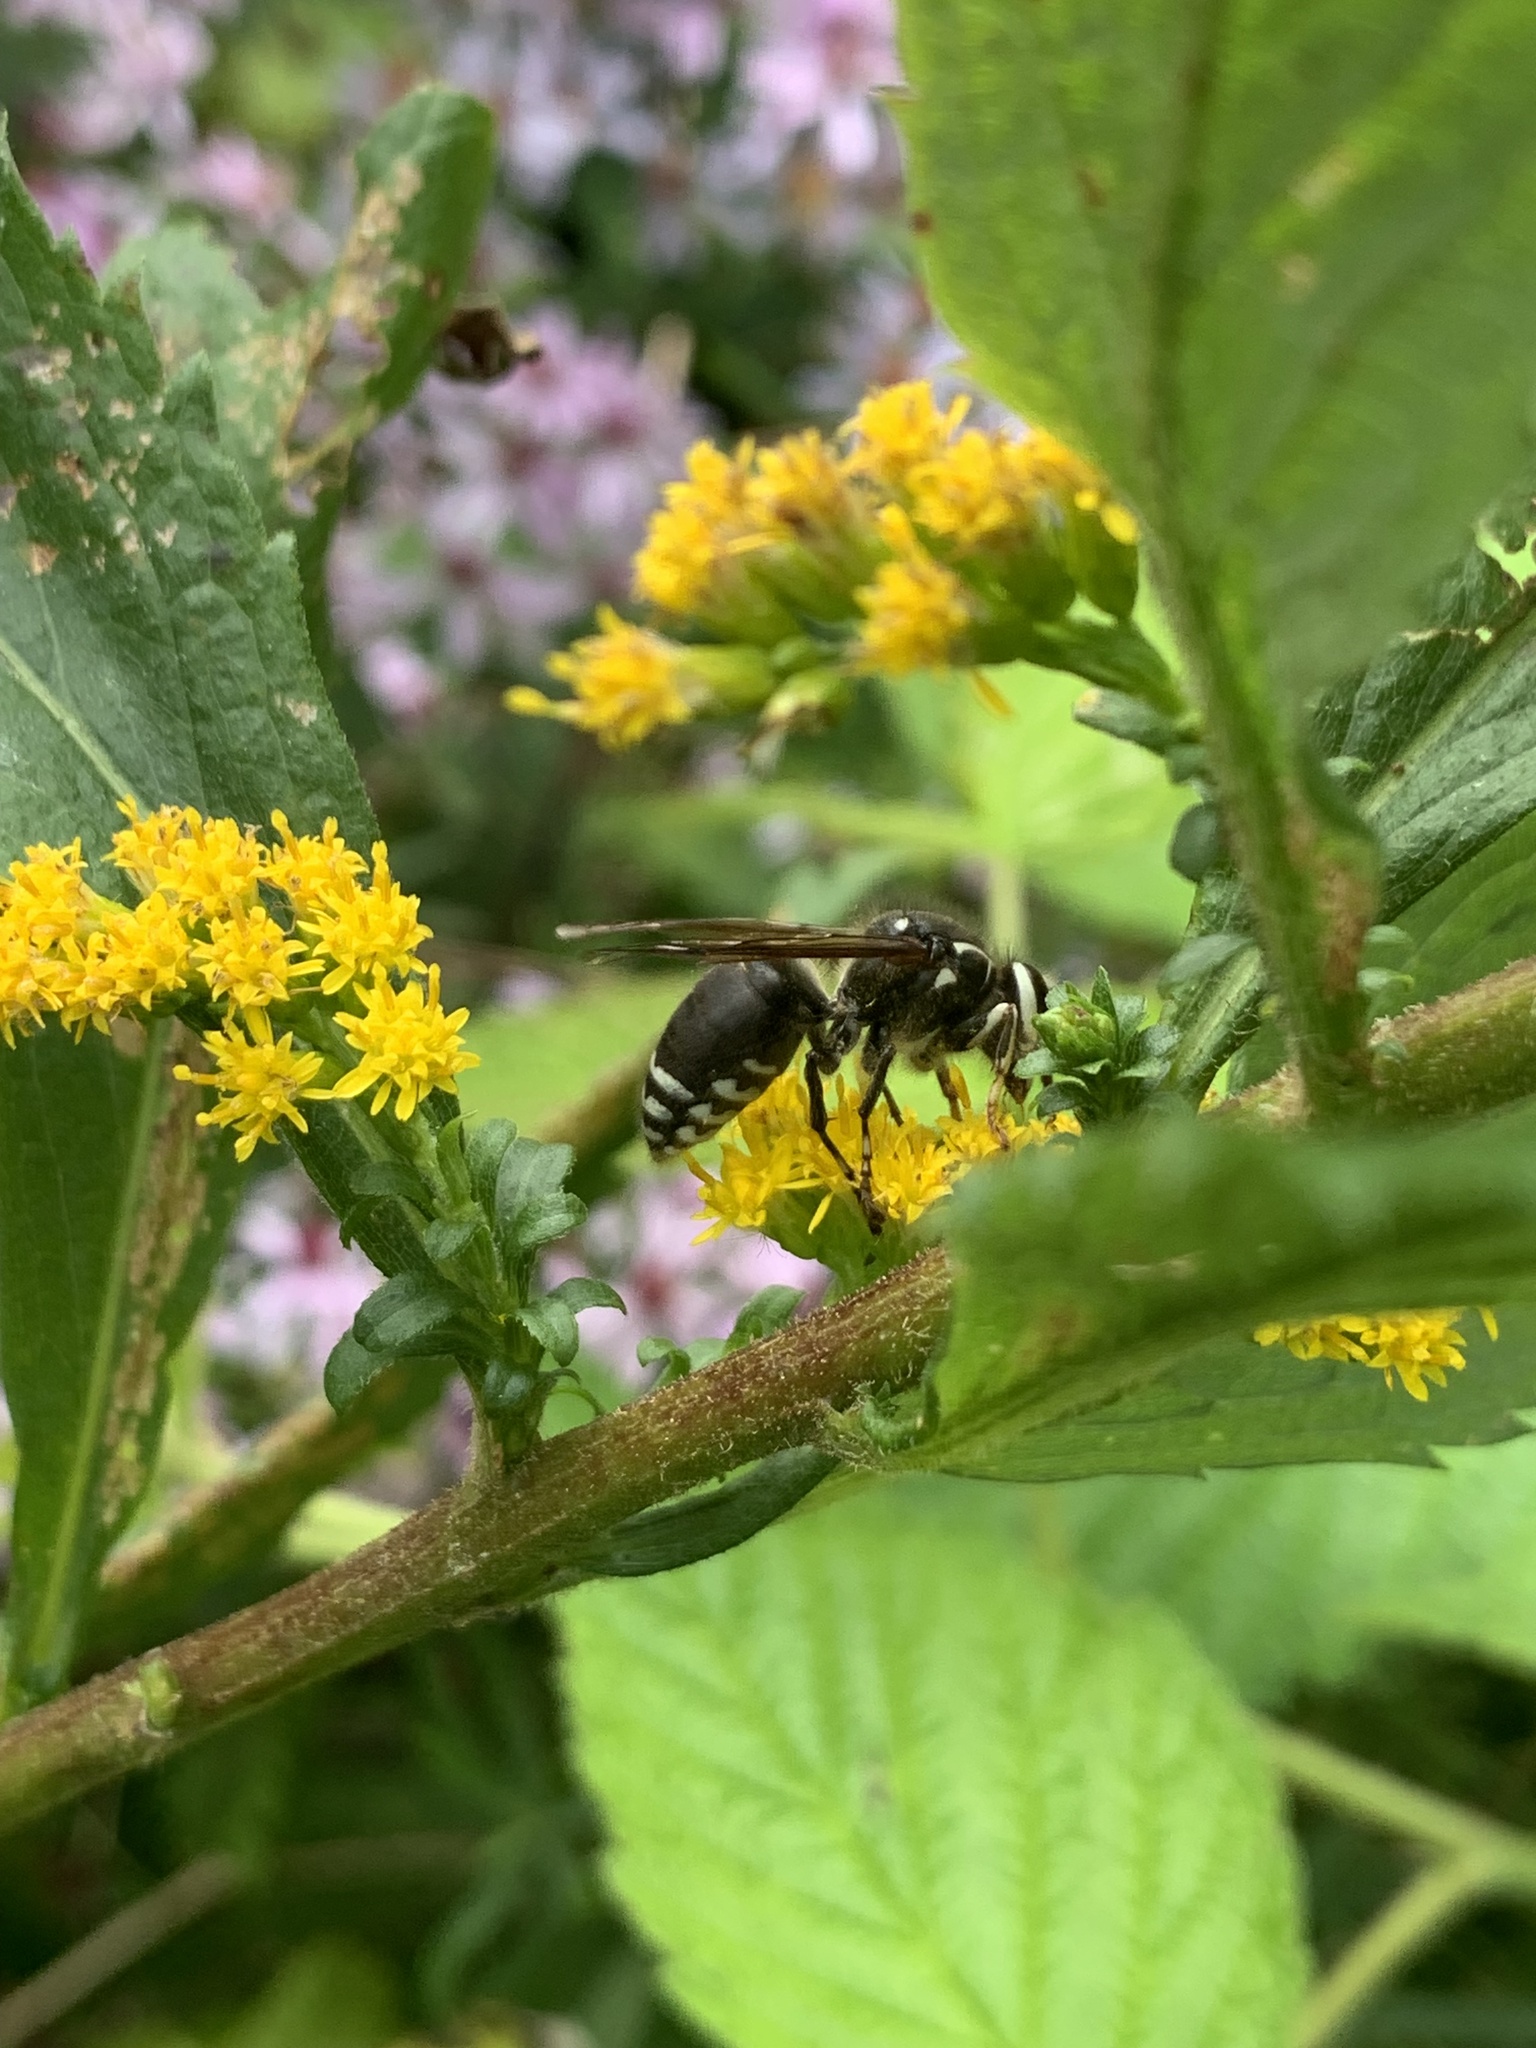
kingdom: Animalia
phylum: Arthropoda
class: Insecta
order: Hymenoptera
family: Vespidae
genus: Dolichovespula
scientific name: Dolichovespula maculata
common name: Bald-faced hornet
